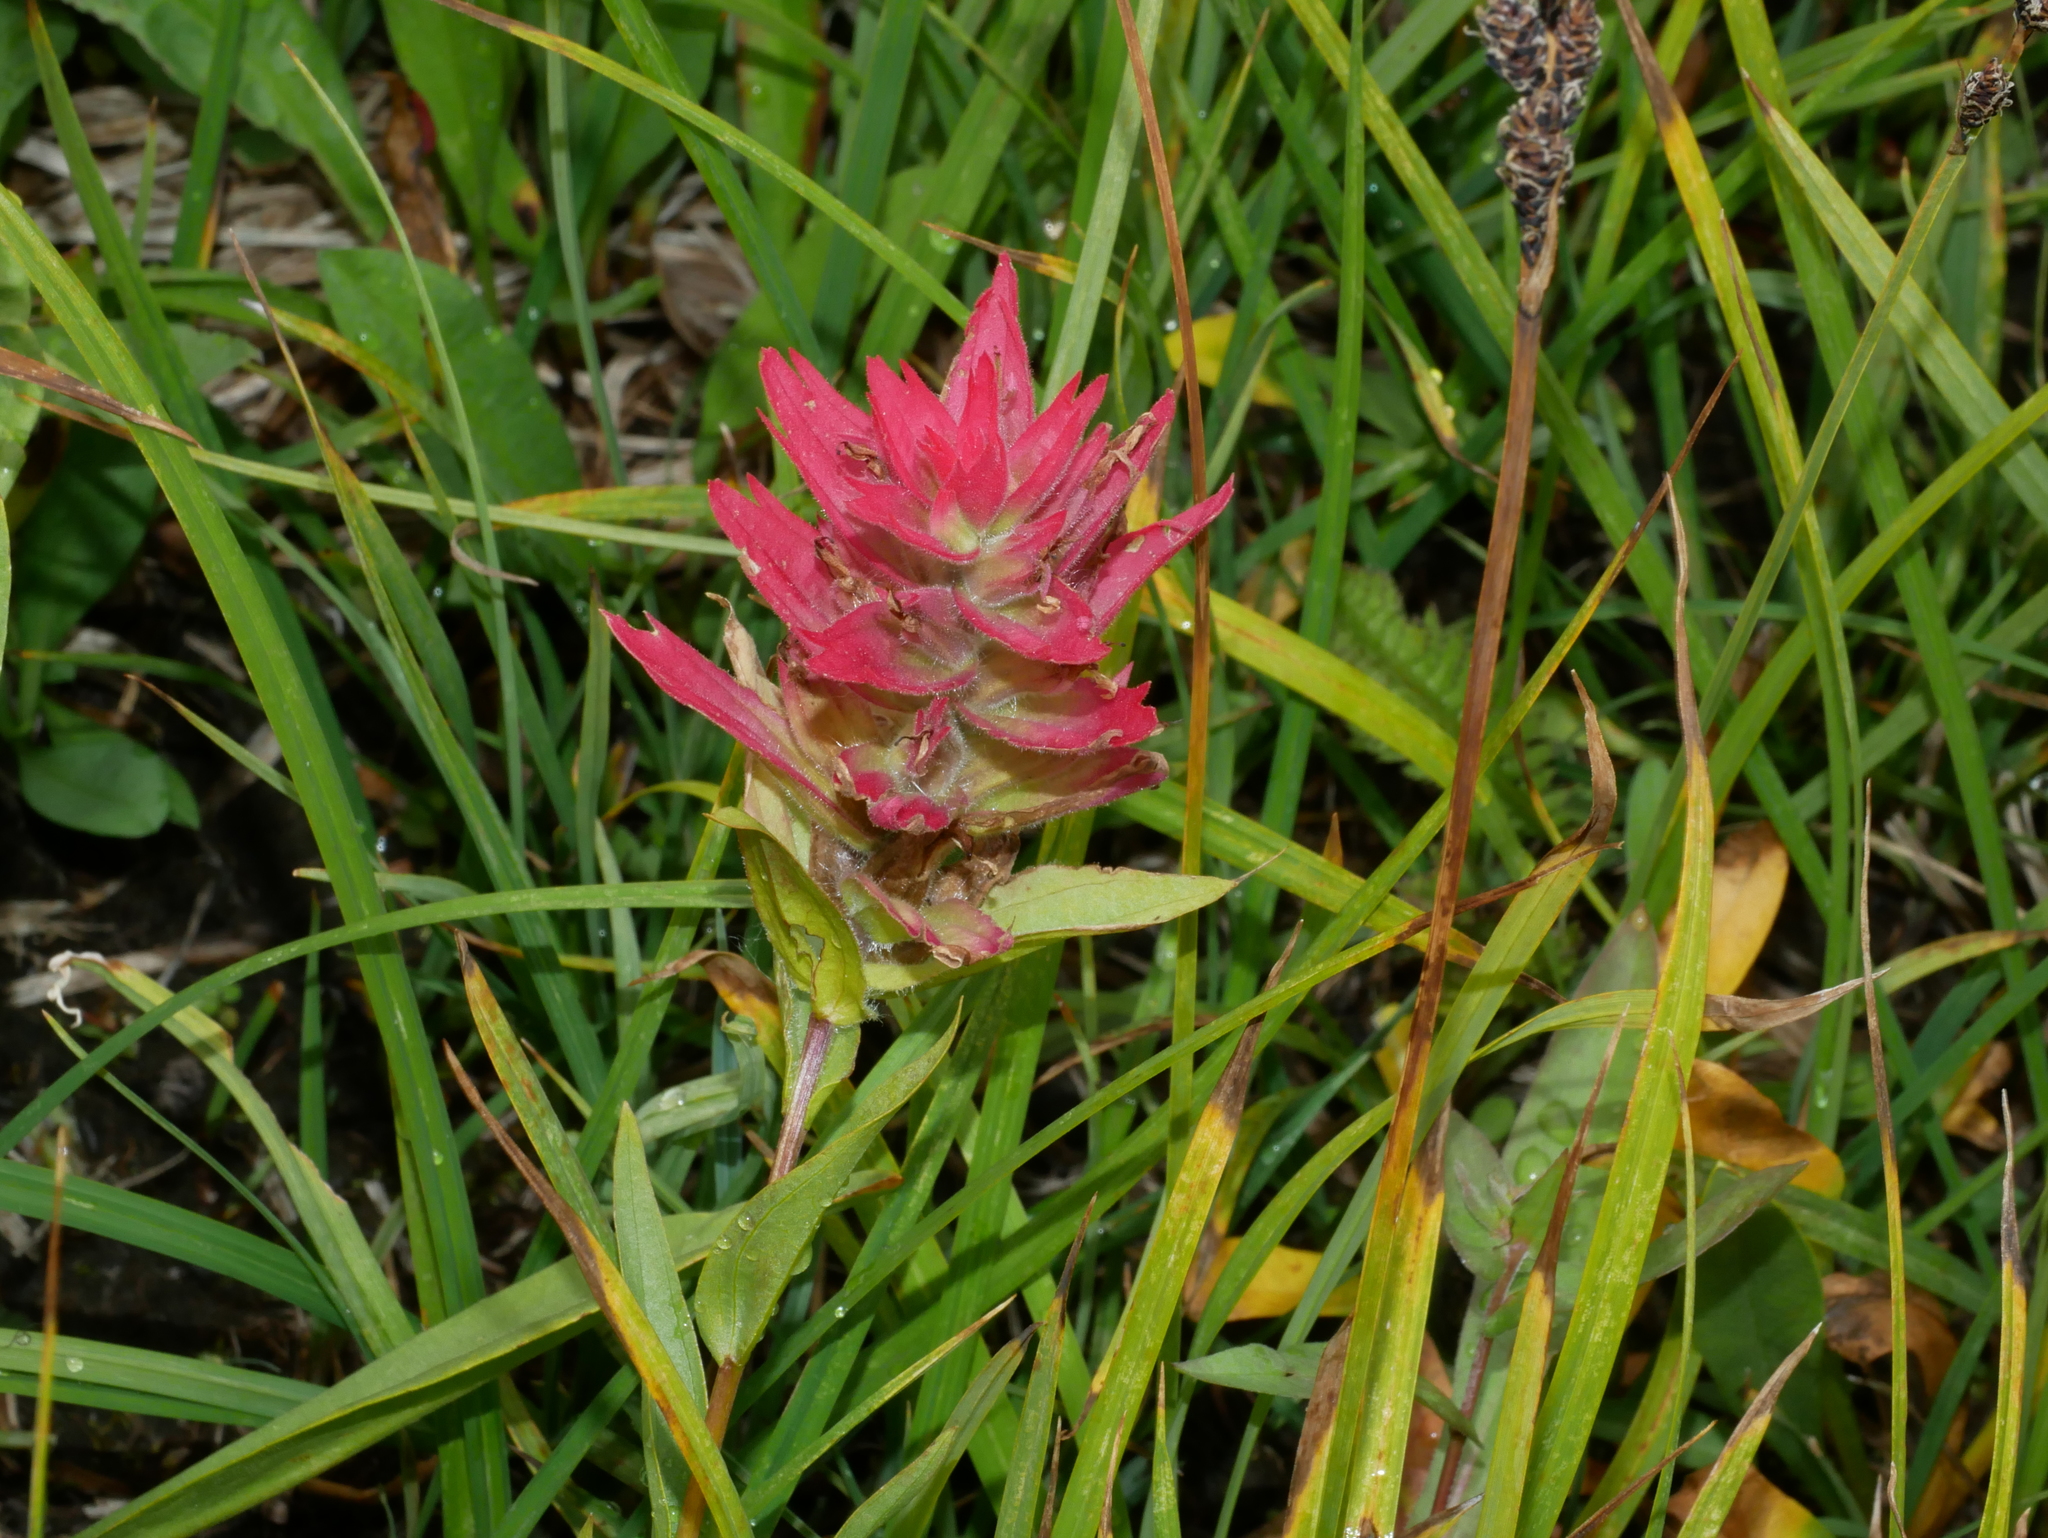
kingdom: Plantae
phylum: Tracheophyta
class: Magnoliopsida
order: Lamiales
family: Orobanchaceae
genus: Castilleja
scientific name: Castilleja miniata
